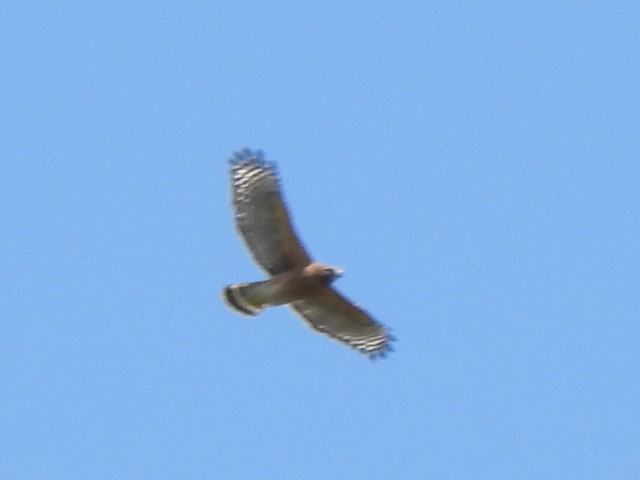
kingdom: Animalia
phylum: Chordata
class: Aves
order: Accipitriformes
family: Accipitridae
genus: Buteo
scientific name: Buteo lineatus
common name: Red-shouldered hawk
